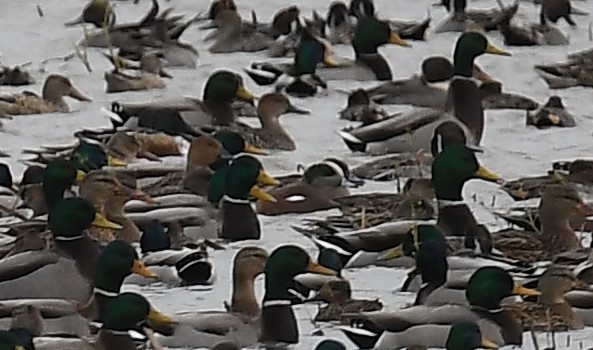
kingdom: Animalia
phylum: Chordata
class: Aves
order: Anseriformes
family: Anatidae
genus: Mareca
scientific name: Mareca americana
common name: American wigeon
